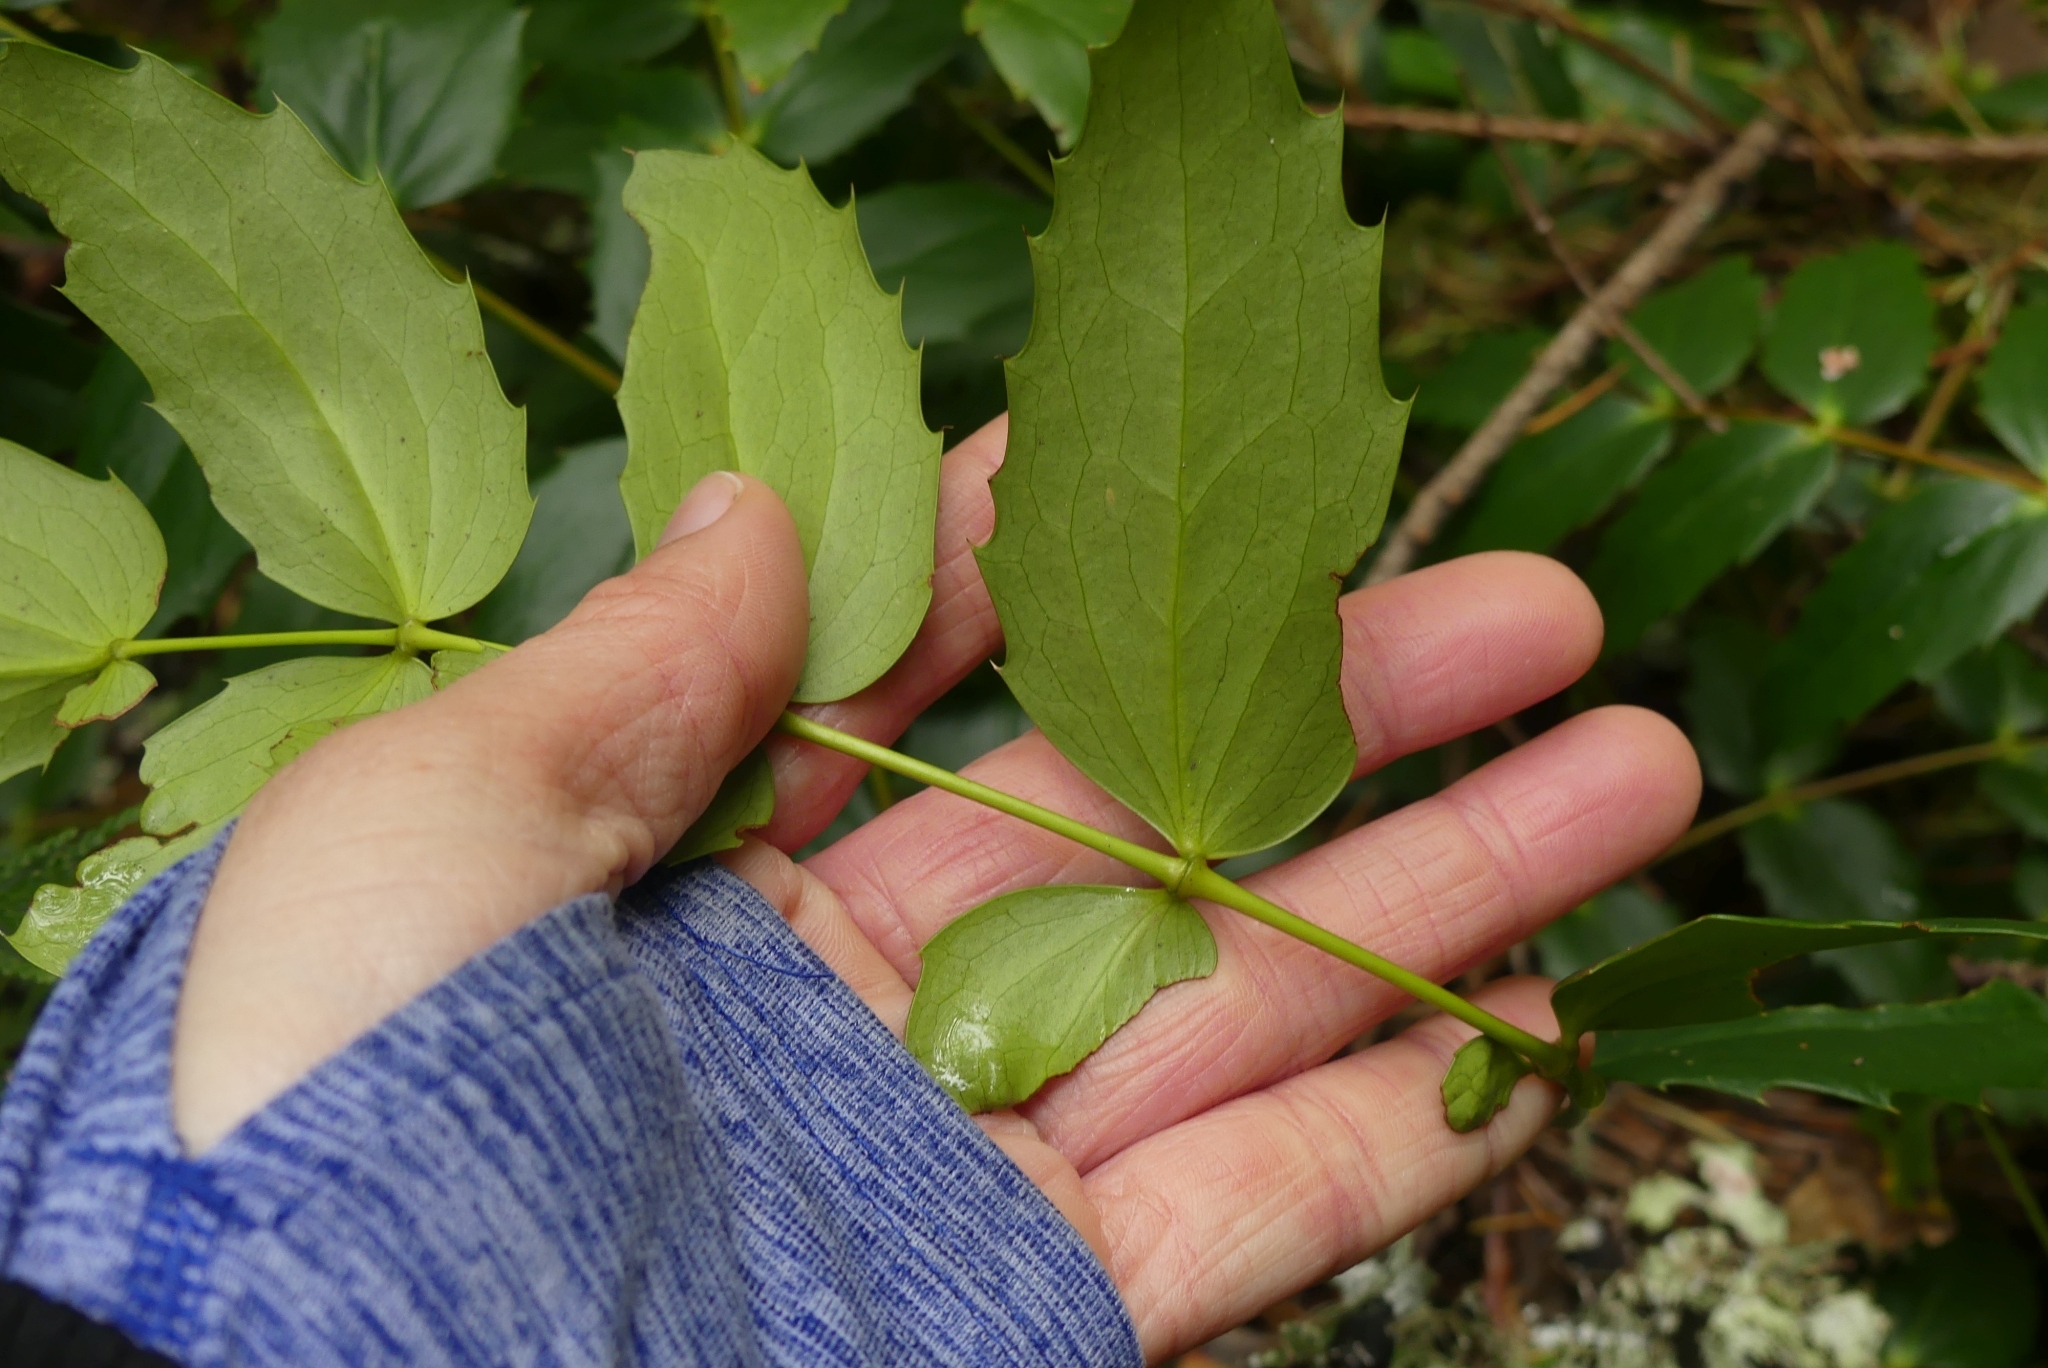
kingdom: Plantae
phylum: Tracheophyta
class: Magnoliopsida
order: Ranunculales
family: Berberidaceae
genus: Mahonia
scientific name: Mahonia nervosa
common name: Cascade oregon-grape
